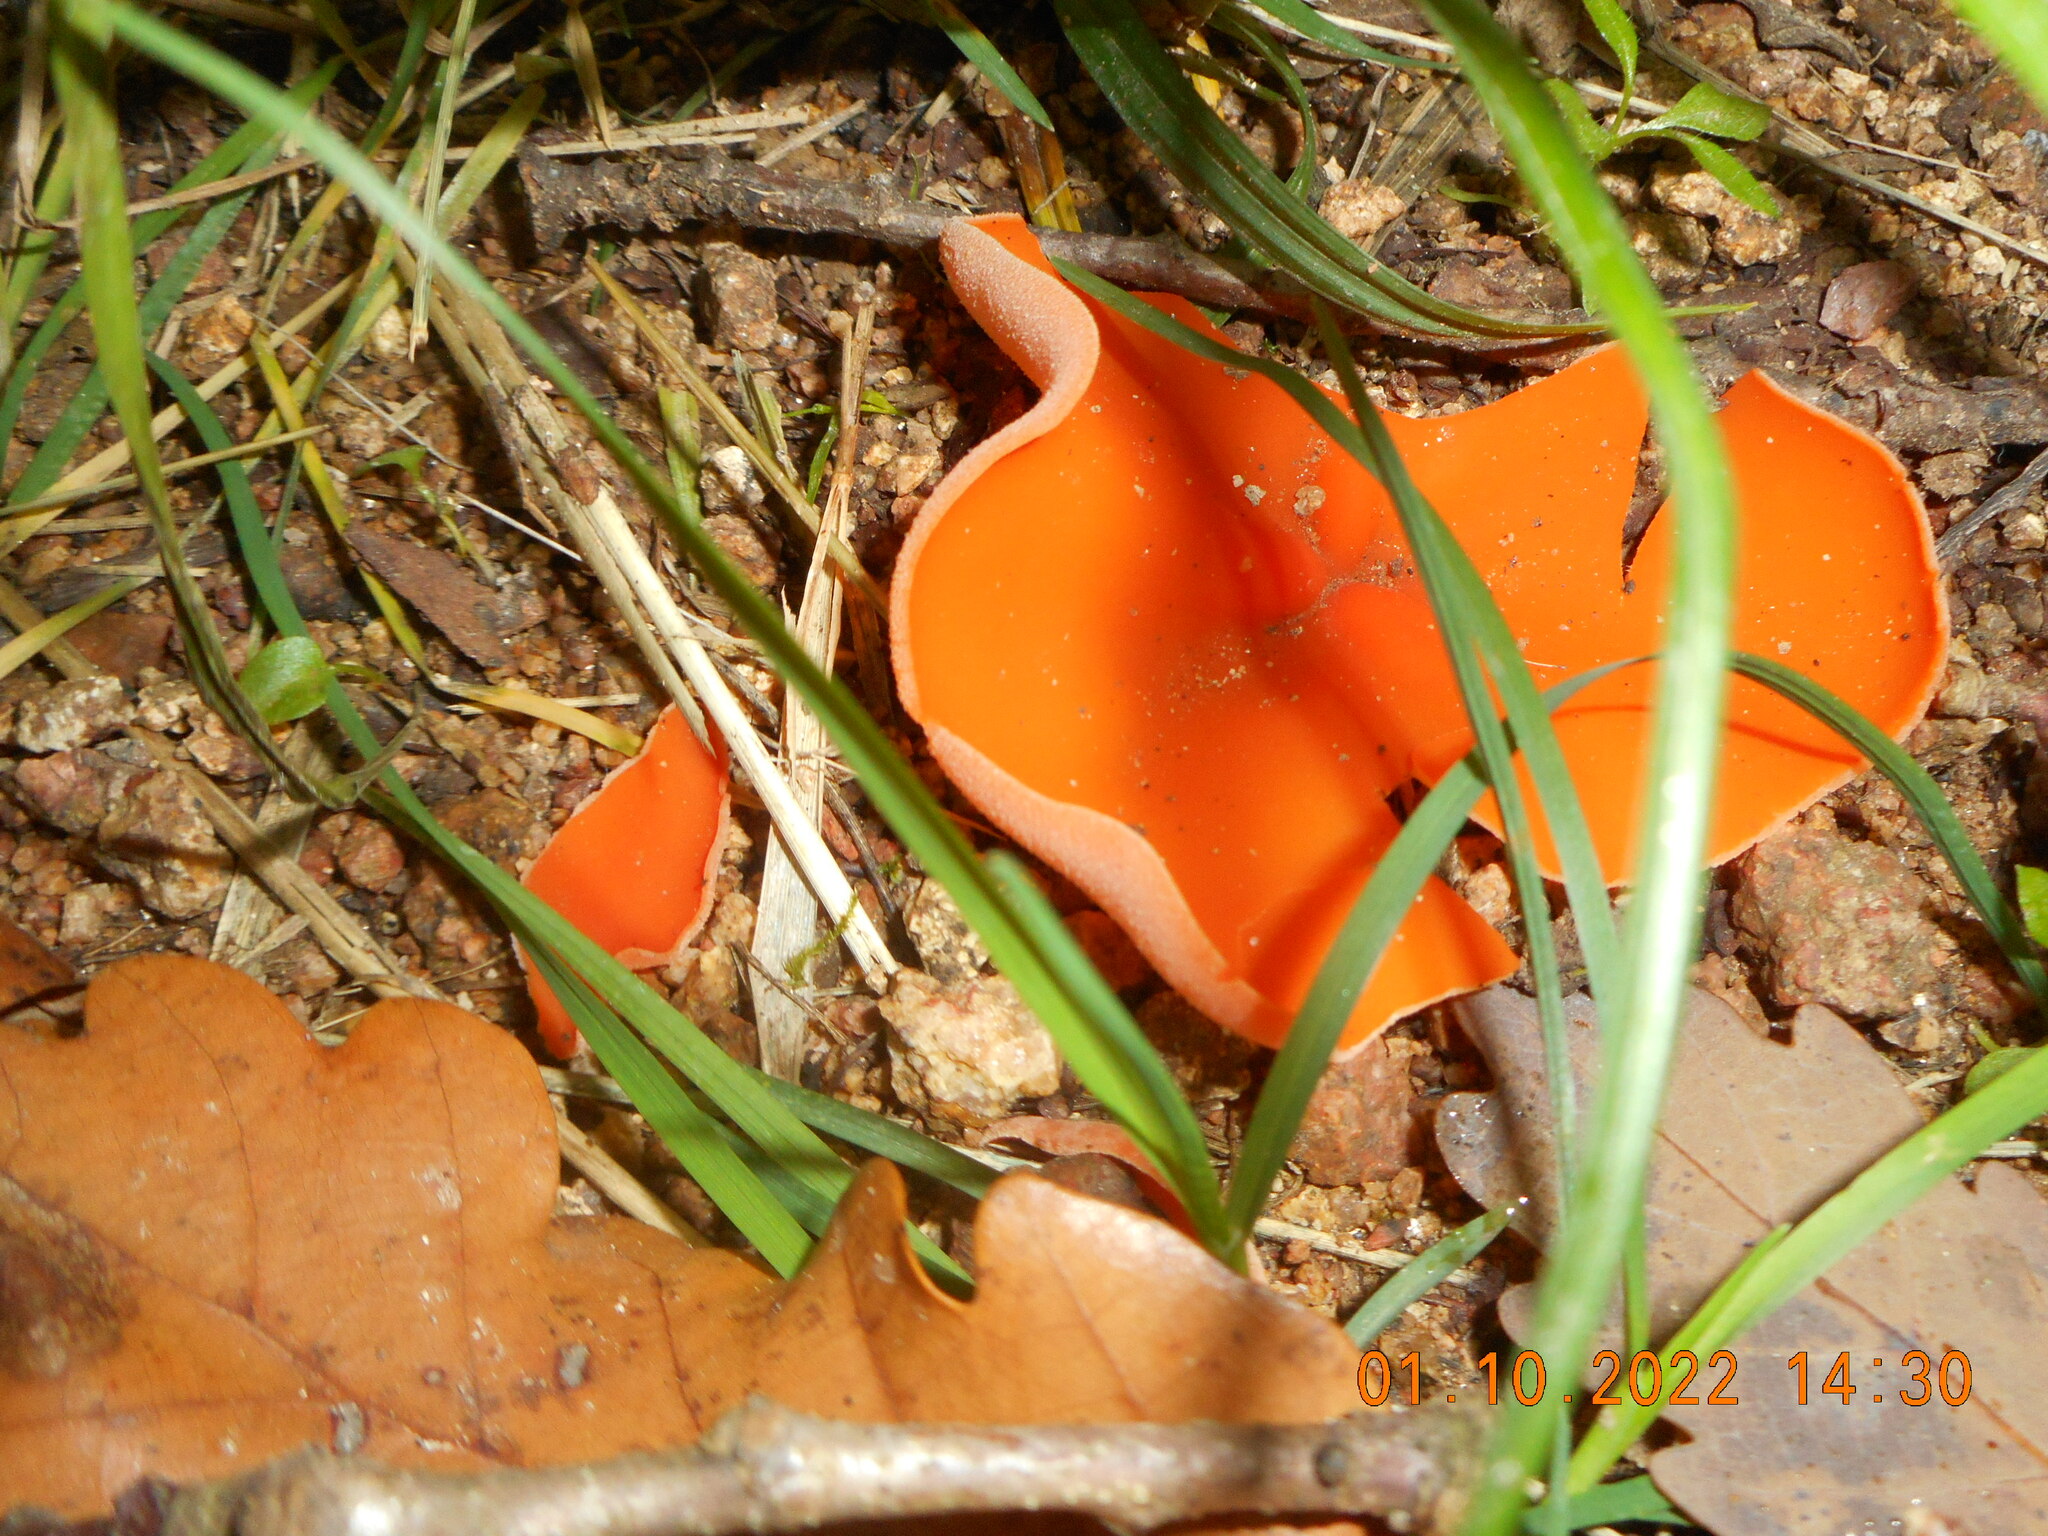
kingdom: Fungi
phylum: Ascomycota
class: Pezizomycetes
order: Pezizales
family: Pyronemataceae
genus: Aleuria
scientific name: Aleuria aurantia
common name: Orange peel fungus
